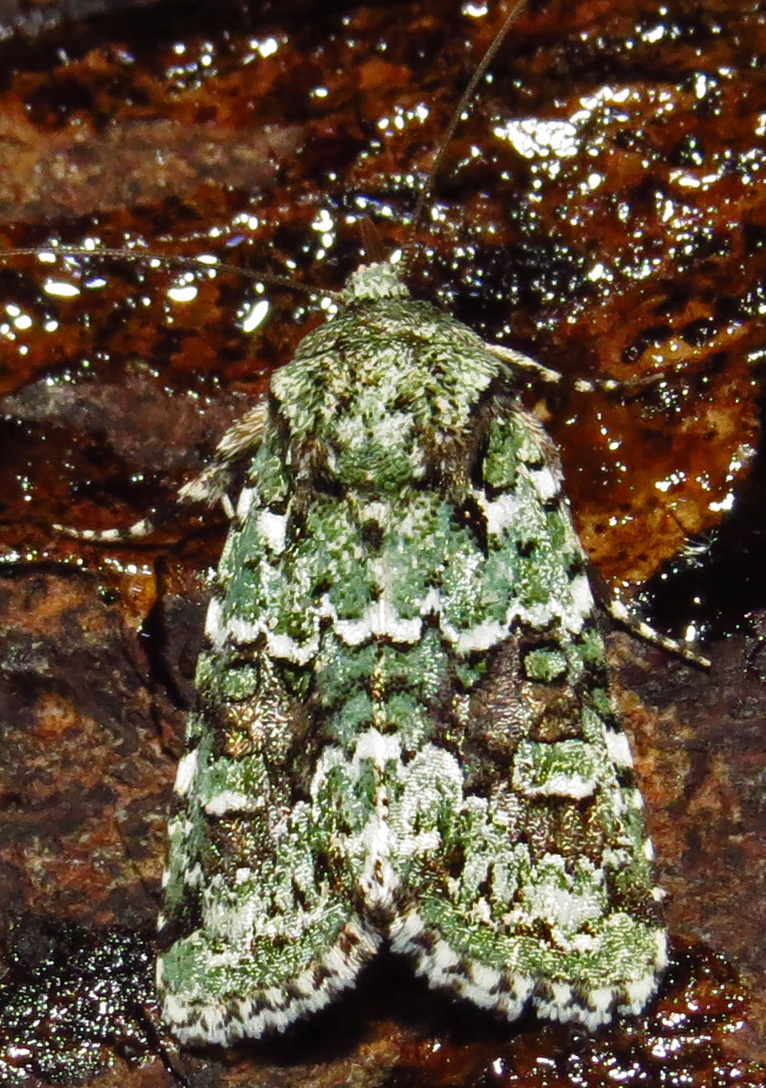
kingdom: Animalia
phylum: Arthropoda
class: Insecta
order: Lepidoptera
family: Noctuidae
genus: Lacinipolia
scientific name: Lacinipolia laudabilis
